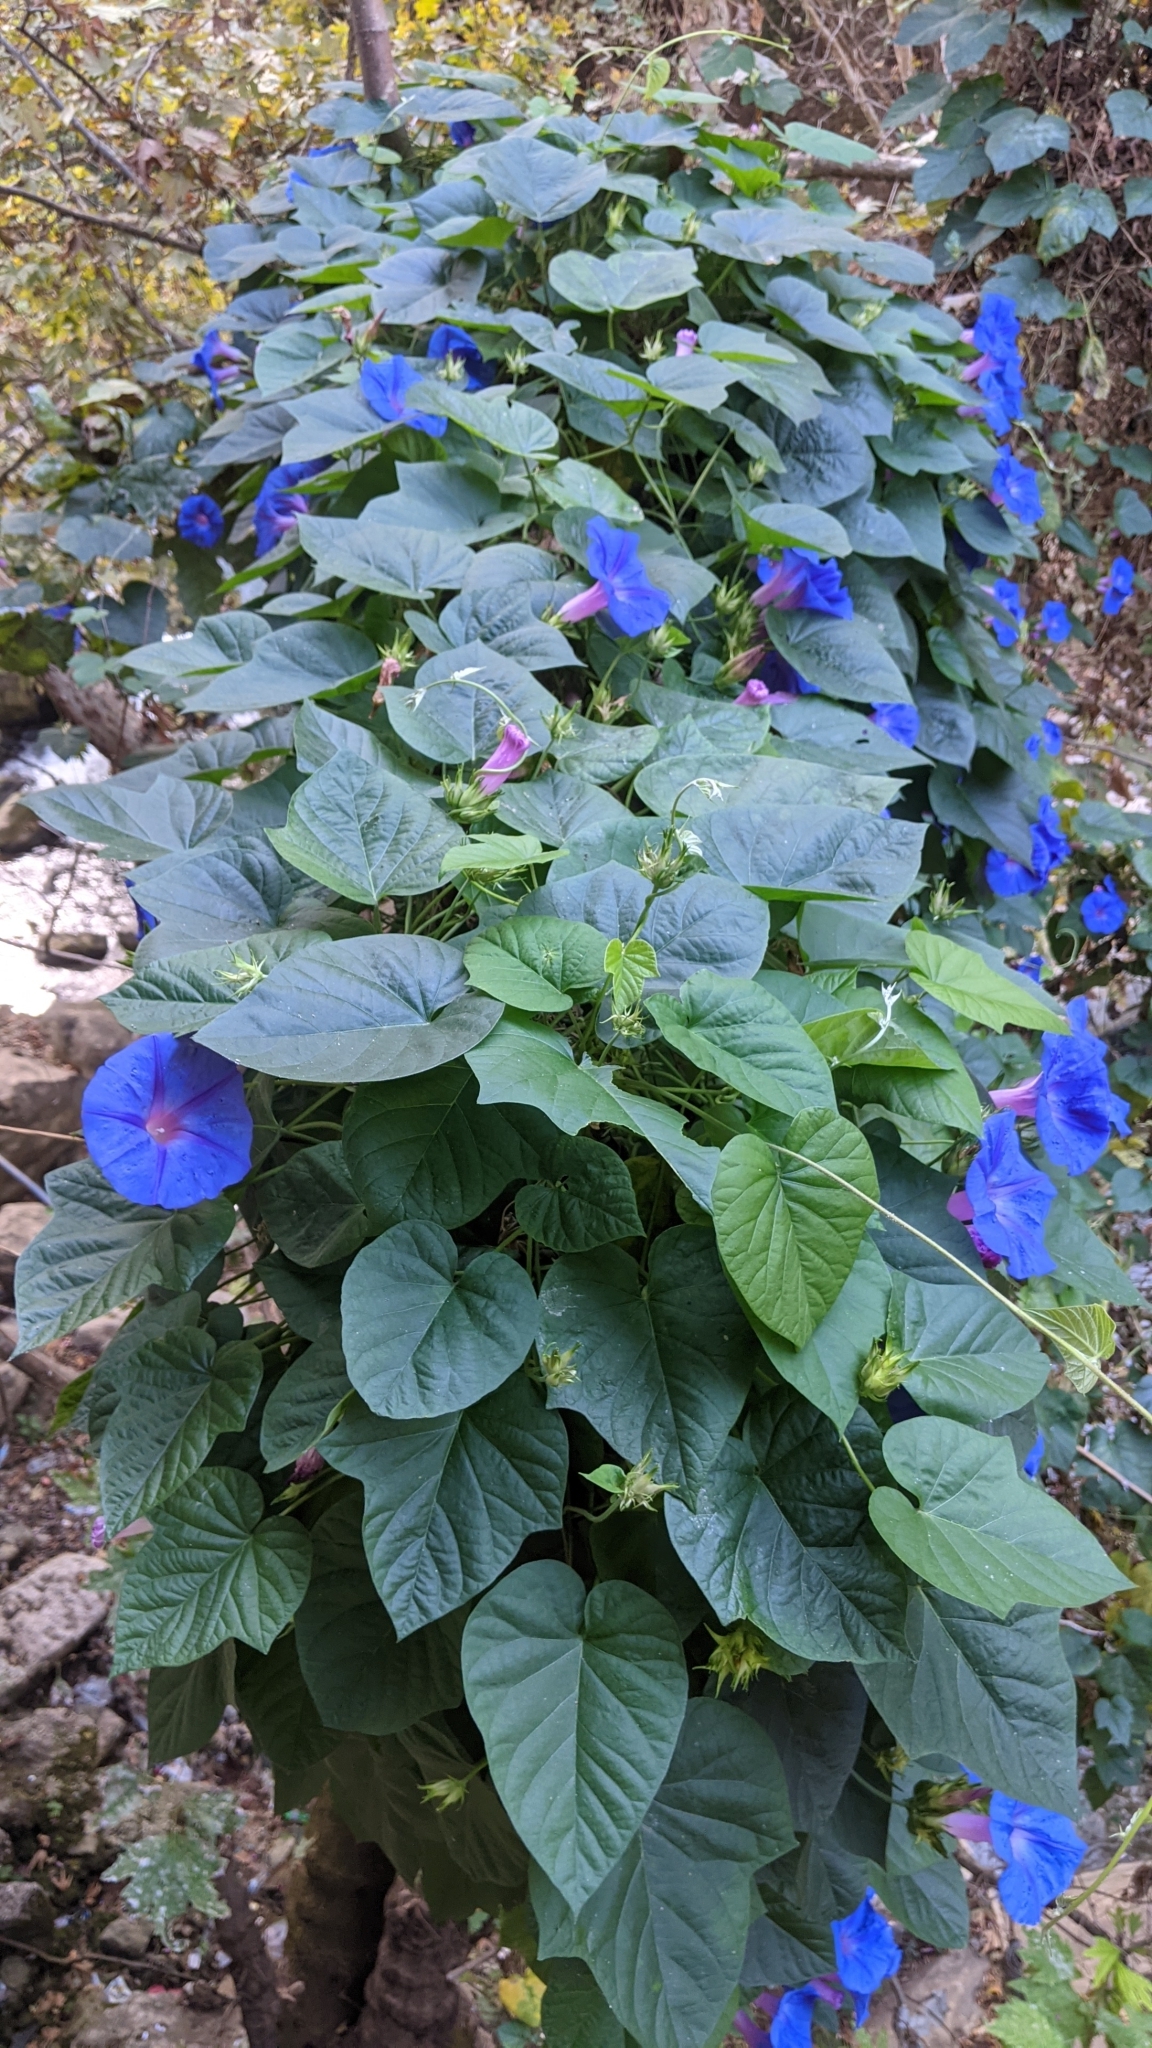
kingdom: Plantae
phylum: Tracheophyta
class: Magnoliopsida
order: Solanales
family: Convolvulaceae
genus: Ipomoea
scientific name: Ipomoea indica
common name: Blue dawnflower
